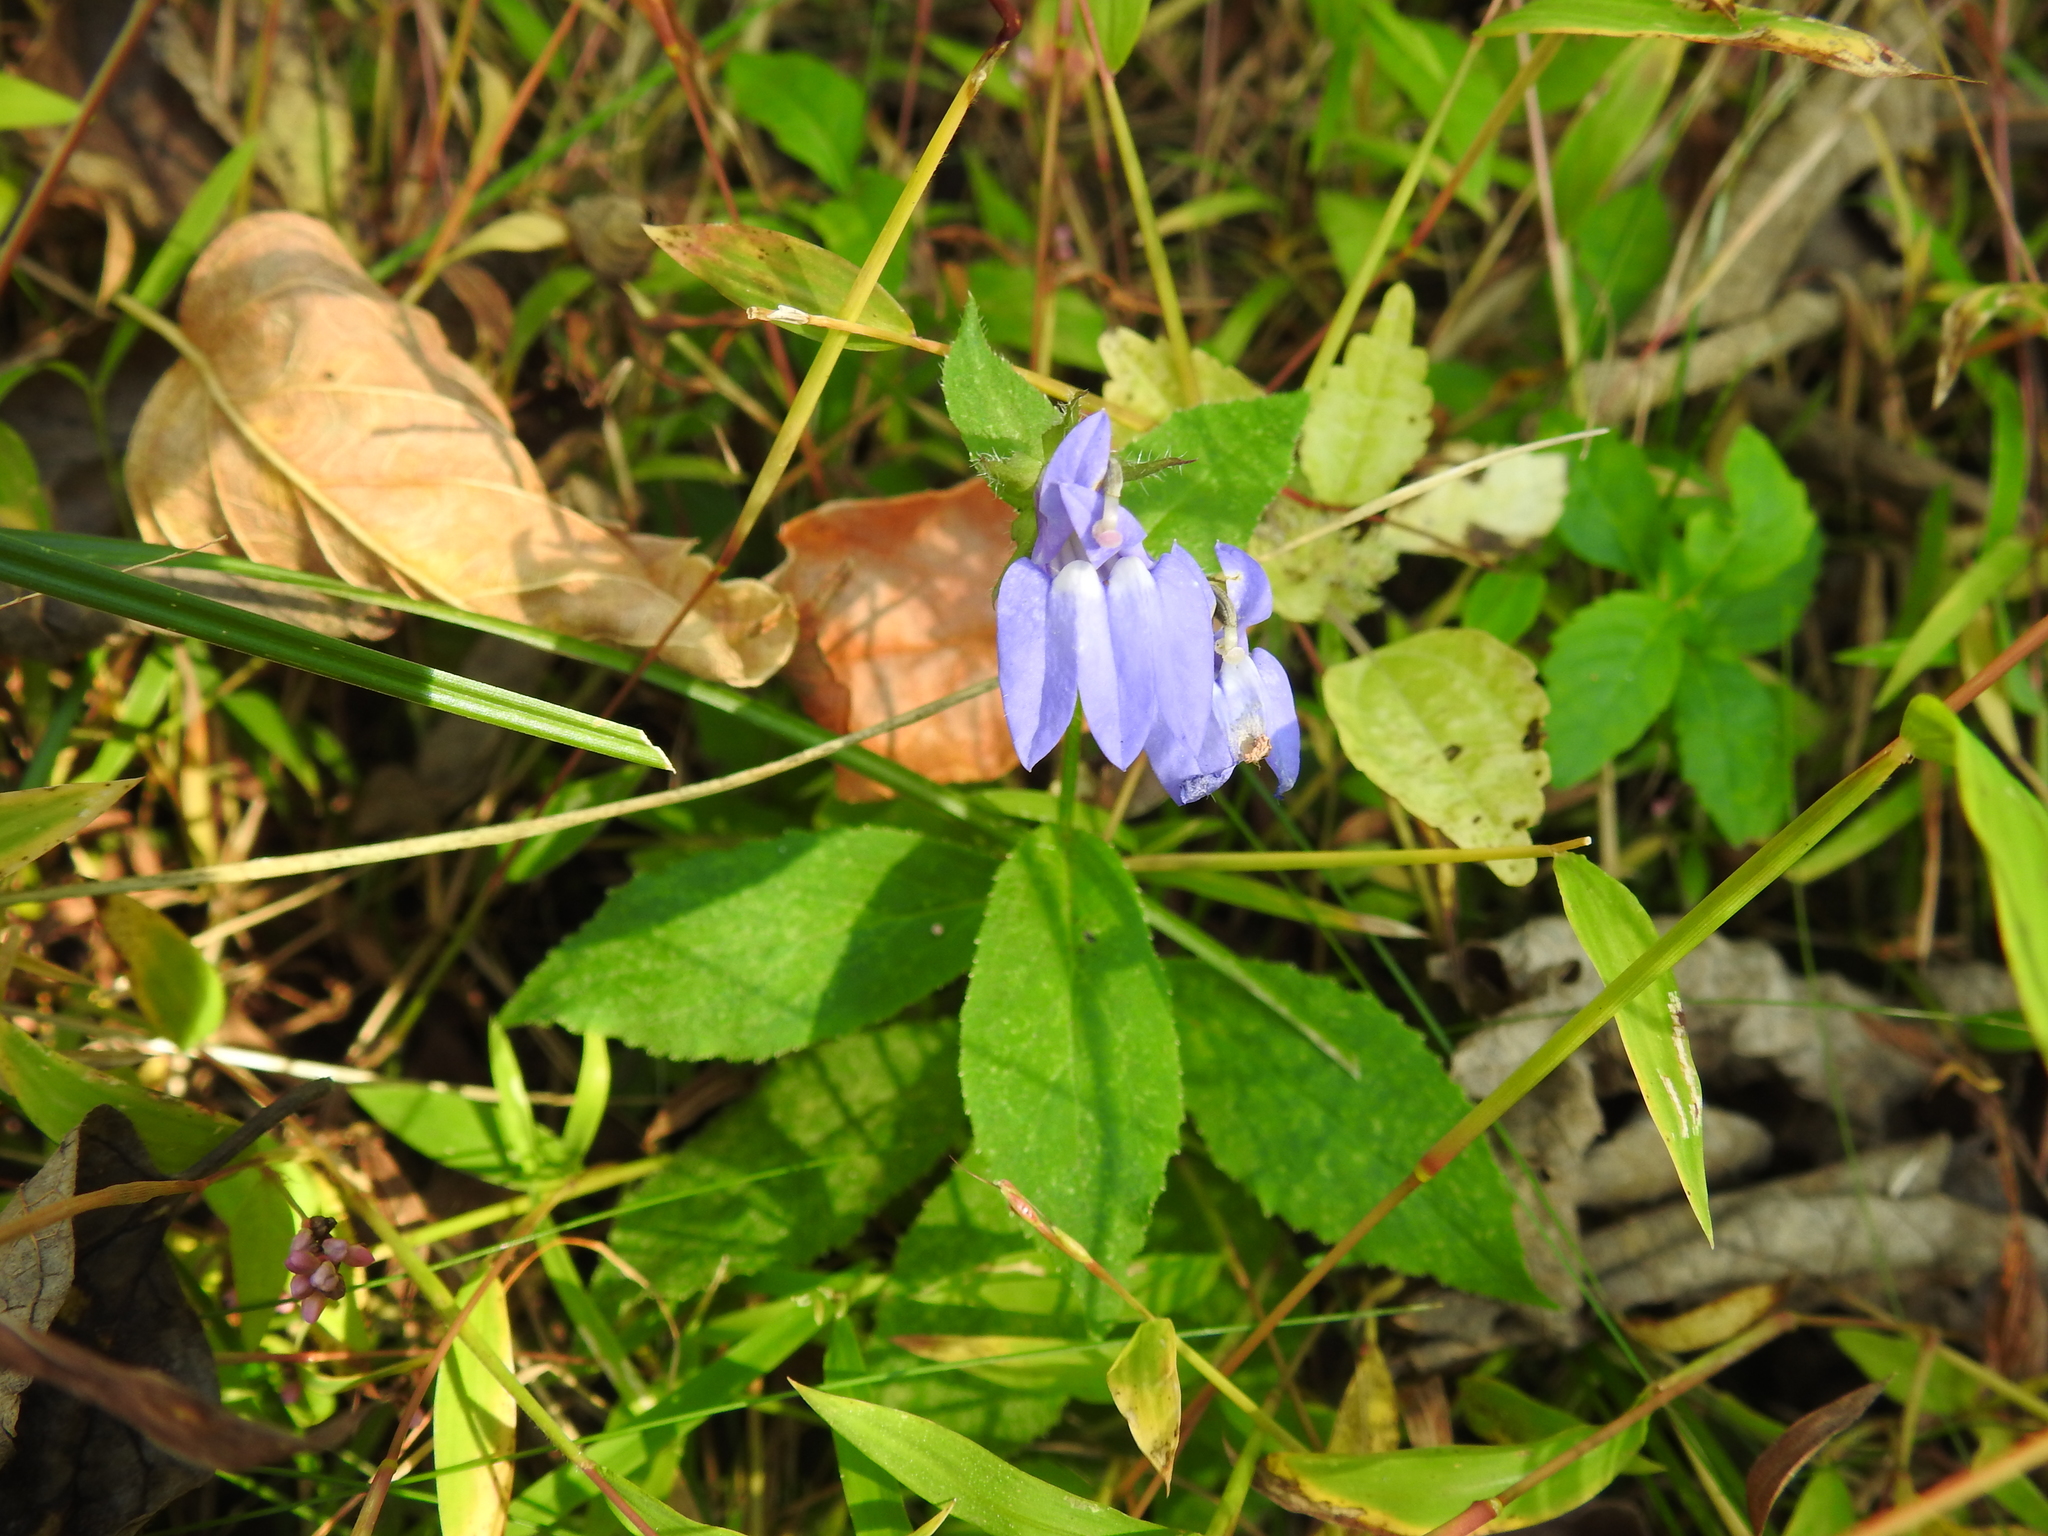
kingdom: Plantae
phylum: Tracheophyta
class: Magnoliopsida
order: Asterales
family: Campanulaceae
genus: Lobelia
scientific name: Lobelia siphilitica
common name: Great lobelia
